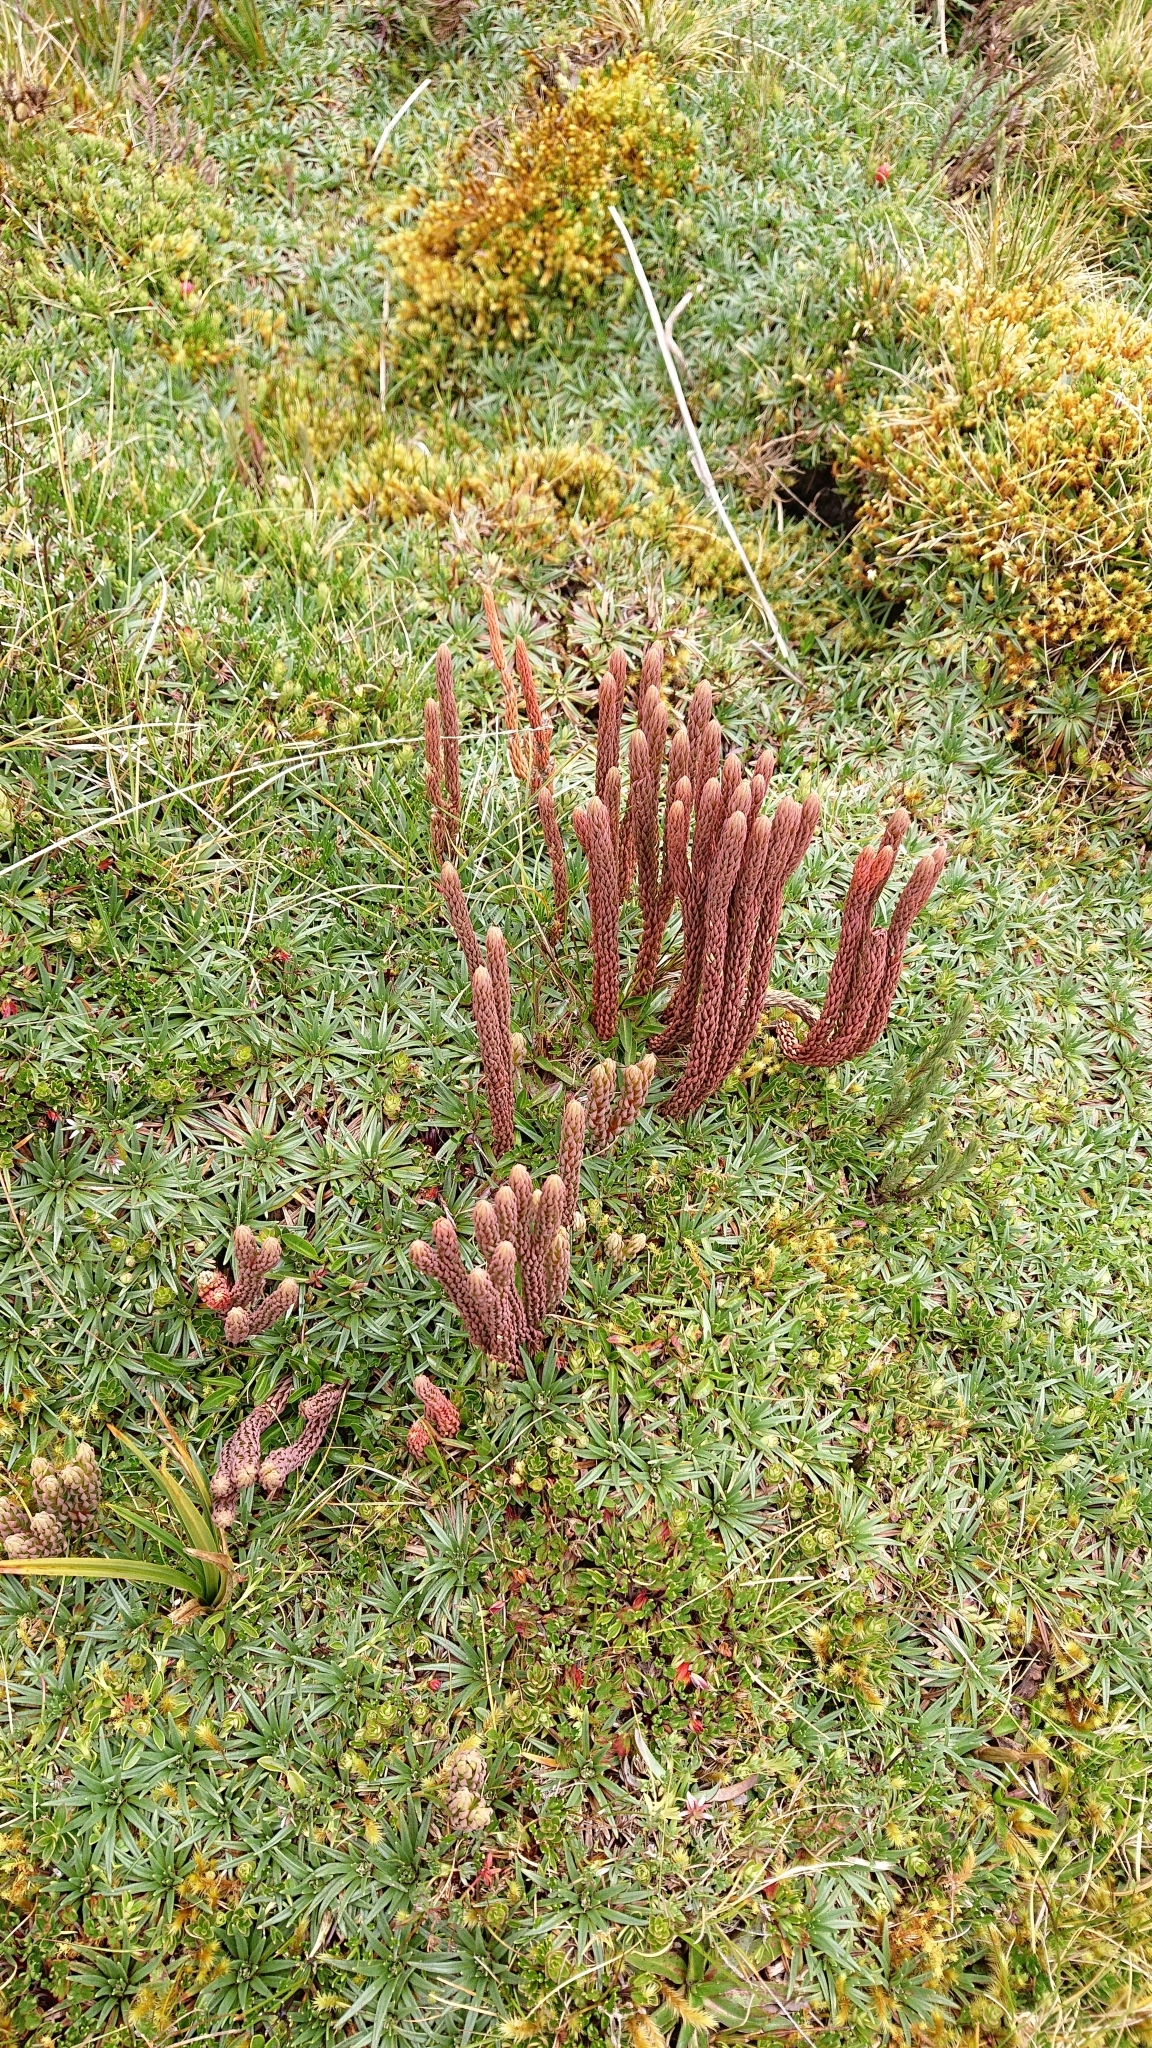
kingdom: Plantae
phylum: Tracheophyta
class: Lycopodiopsida
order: Lycopodiales
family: Lycopodiaceae
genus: Phlegmariurus
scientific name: Phlegmariurus crassus
